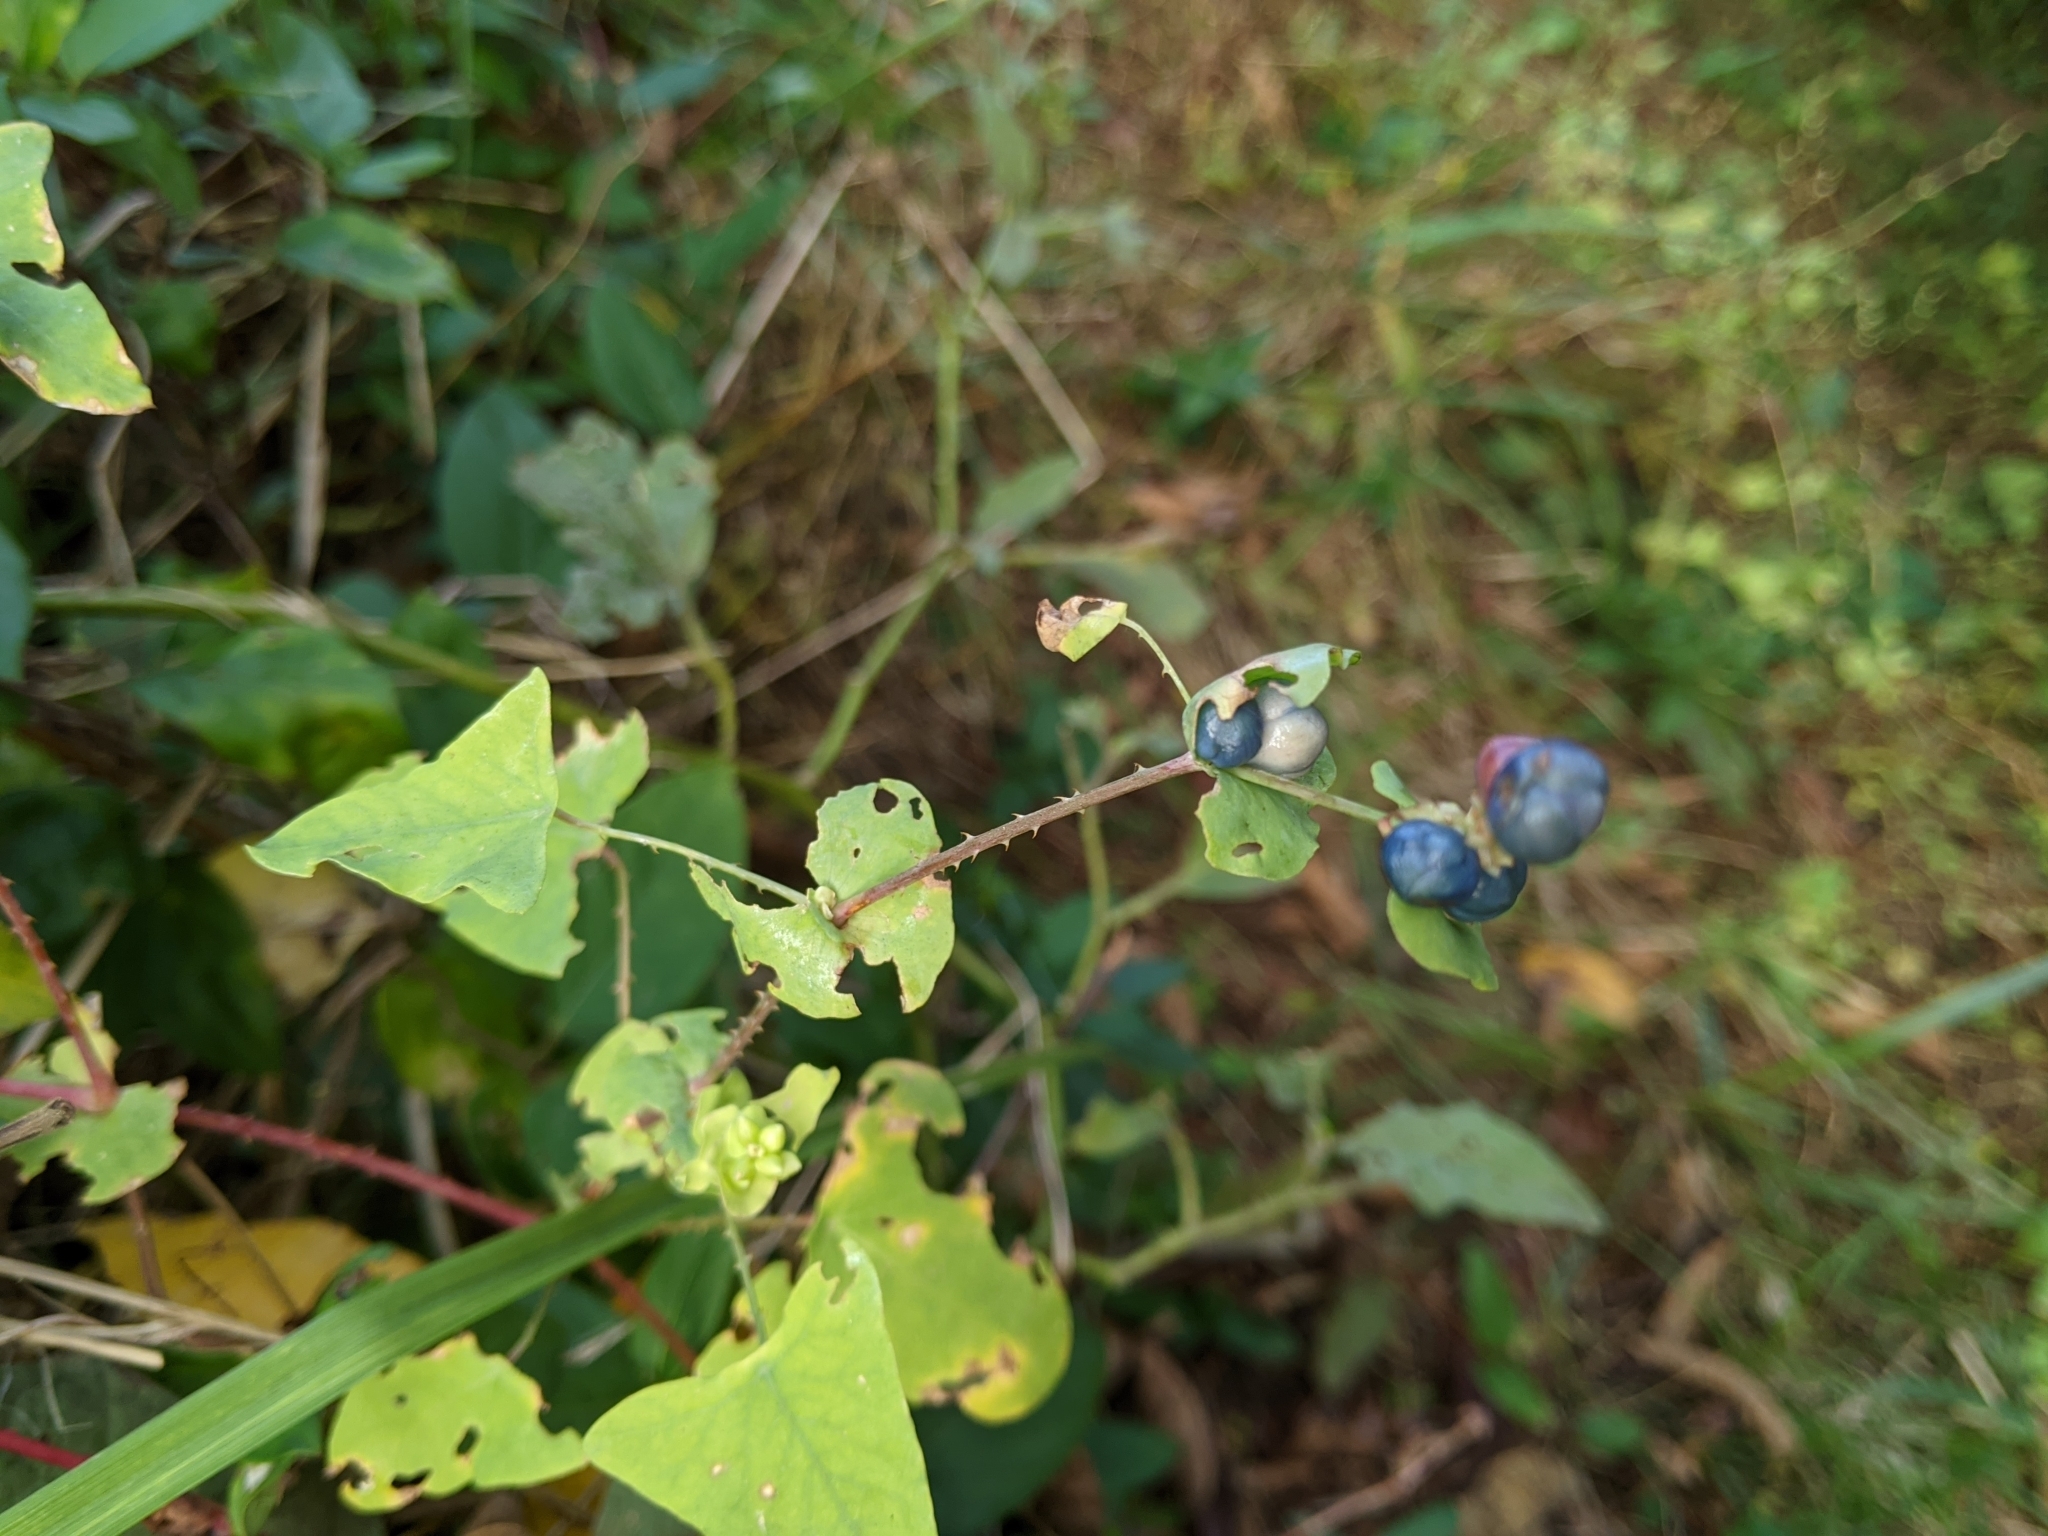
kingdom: Plantae
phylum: Tracheophyta
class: Magnoliopsida
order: Caryophyllales
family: Polygonaceae
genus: Persicaria
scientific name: Persicaria perfoliata
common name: Asiatic tearthumb
